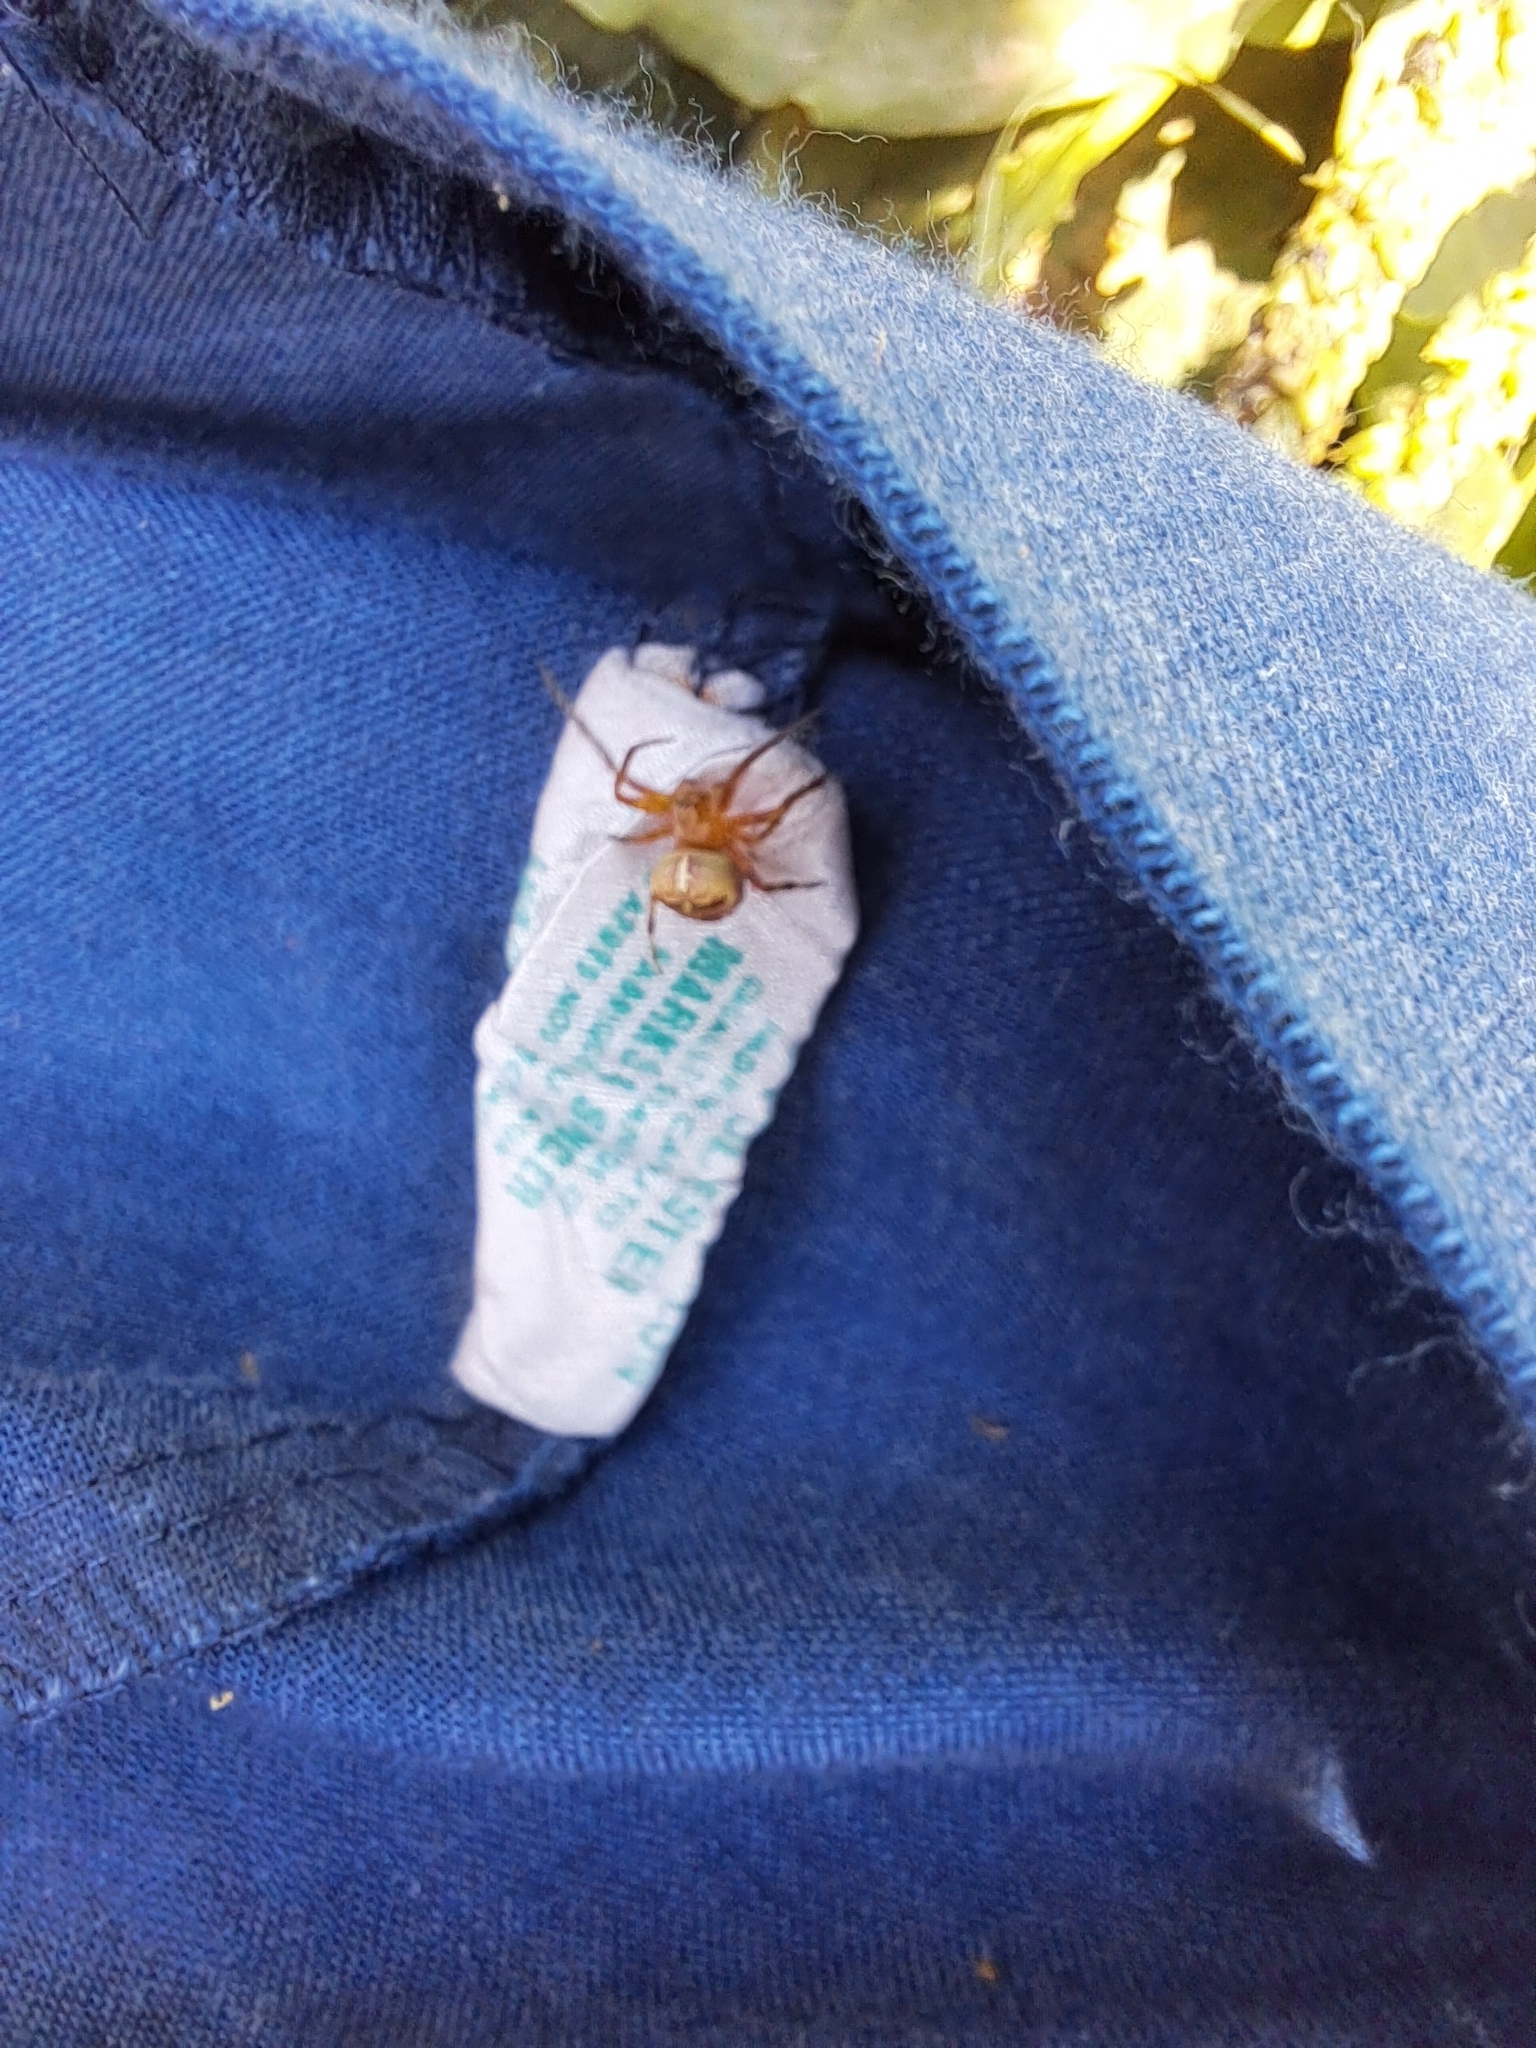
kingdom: Animalia
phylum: Arthropoda
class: Arachnida
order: Araneae
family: Araneidae
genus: Araniella
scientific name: Araniella displicata
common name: Sixspotted orb weaver
